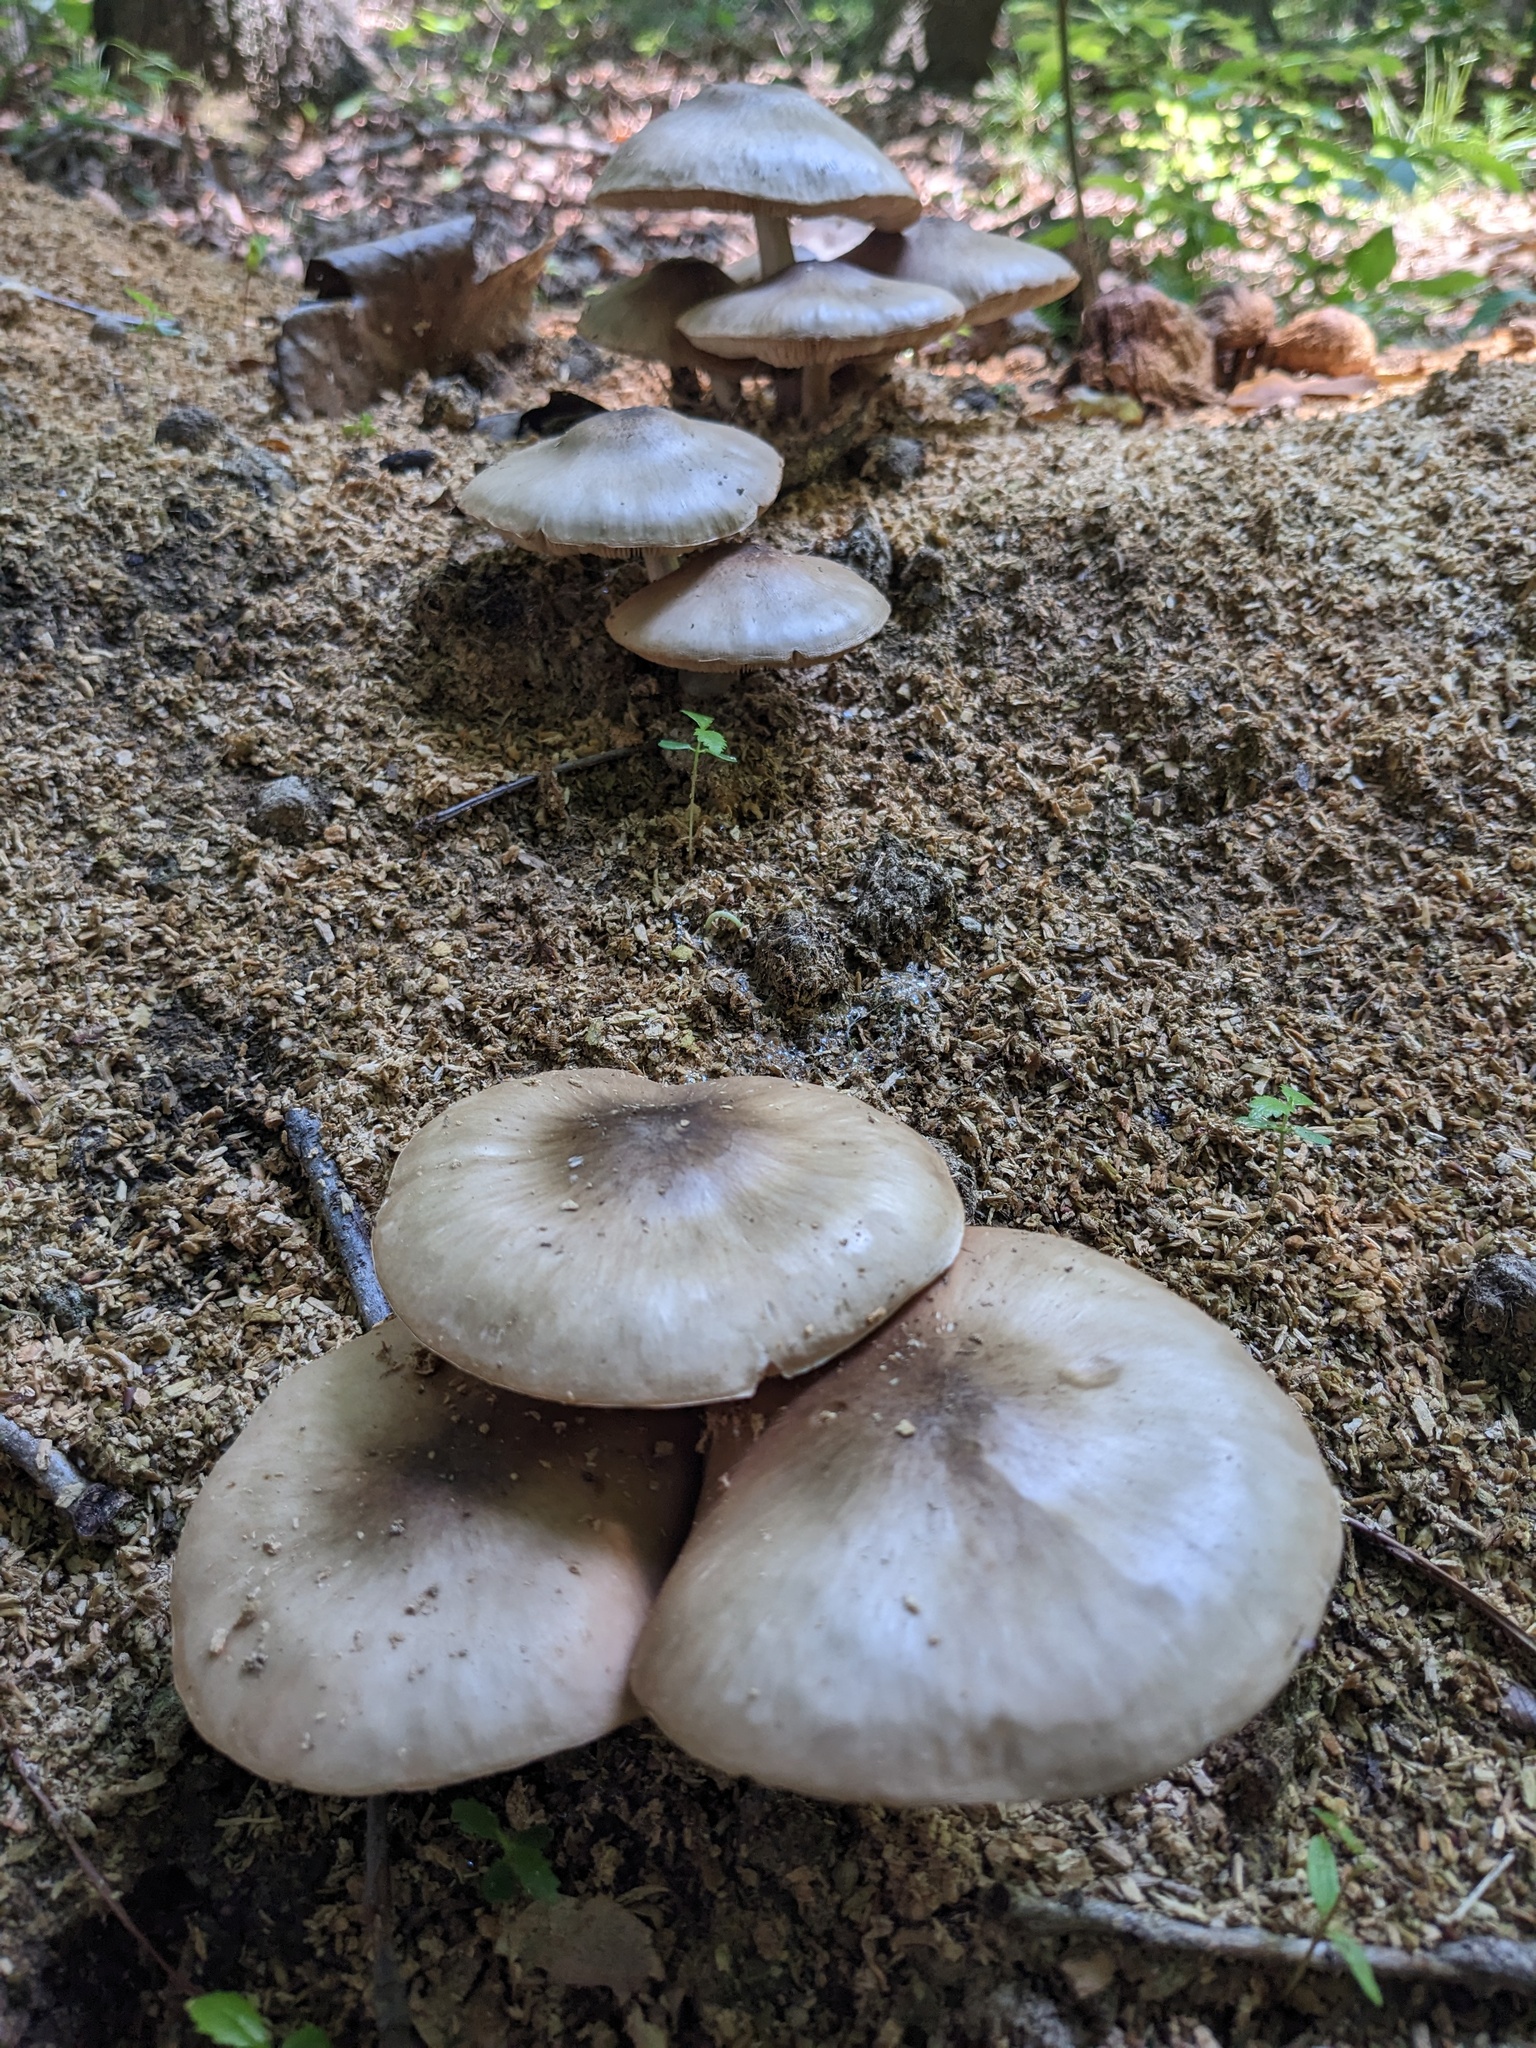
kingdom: Fungi
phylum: Basidiomycota
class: Agaricomycetes
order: Agaricales
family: Pluteaceae
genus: Pluteus
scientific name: Pluteus cervinus
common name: Deer shield
